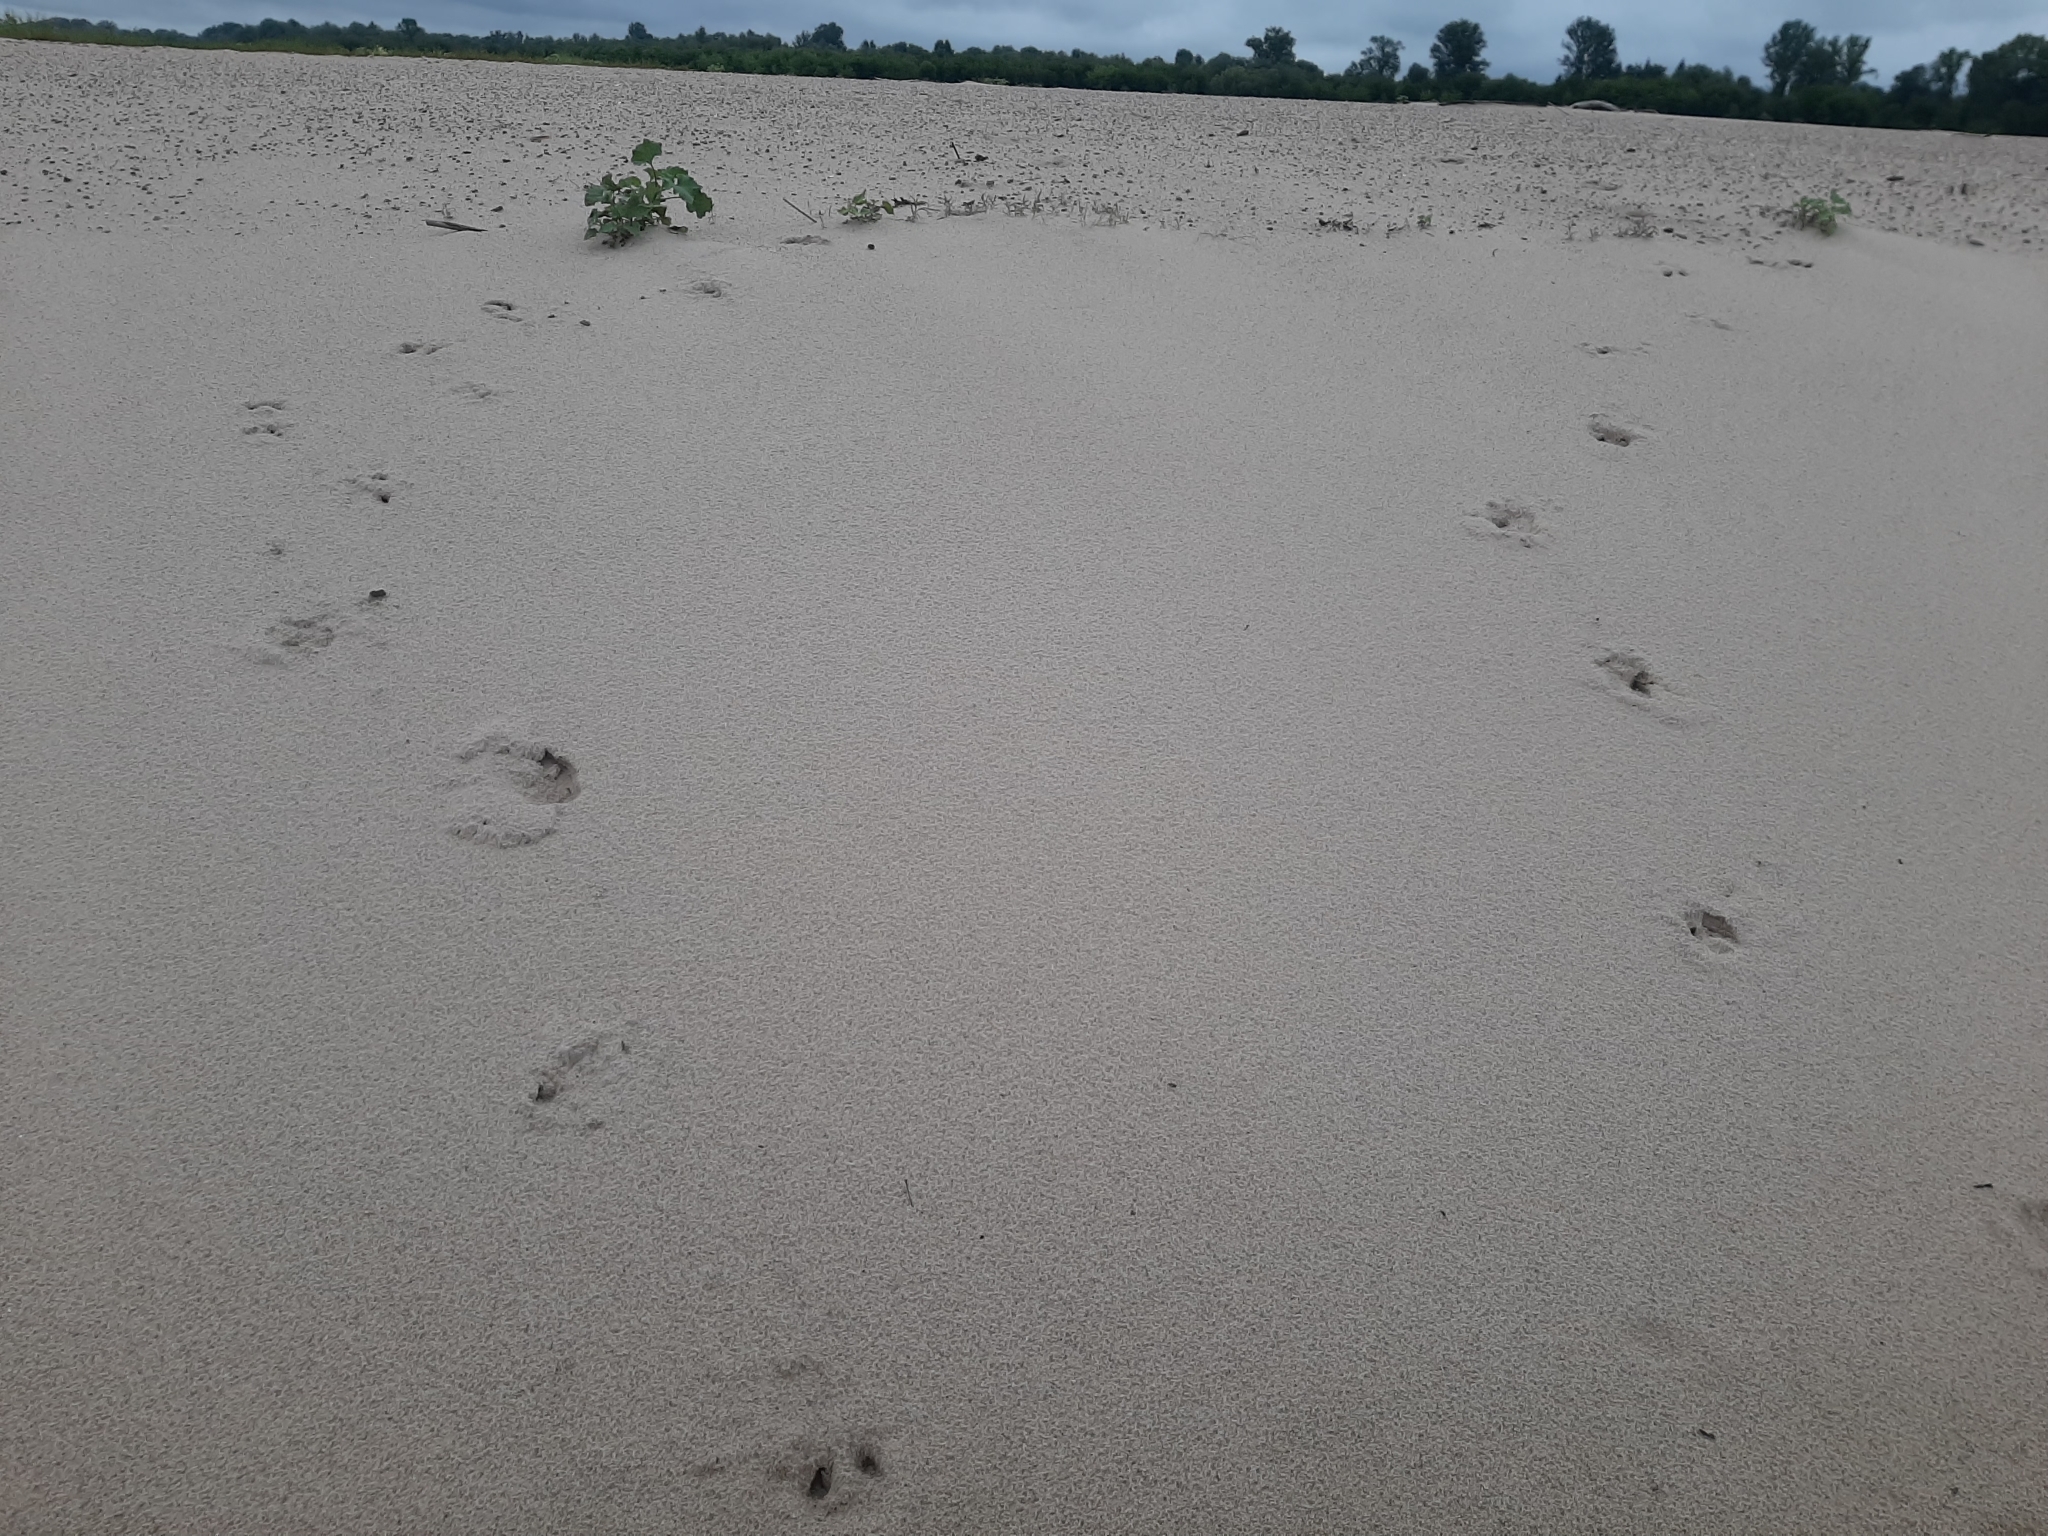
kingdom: Animalia
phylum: Chordata
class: Mammalia
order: Artiodactyla
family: Cervidae
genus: Alces
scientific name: Alces alces
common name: Moose
